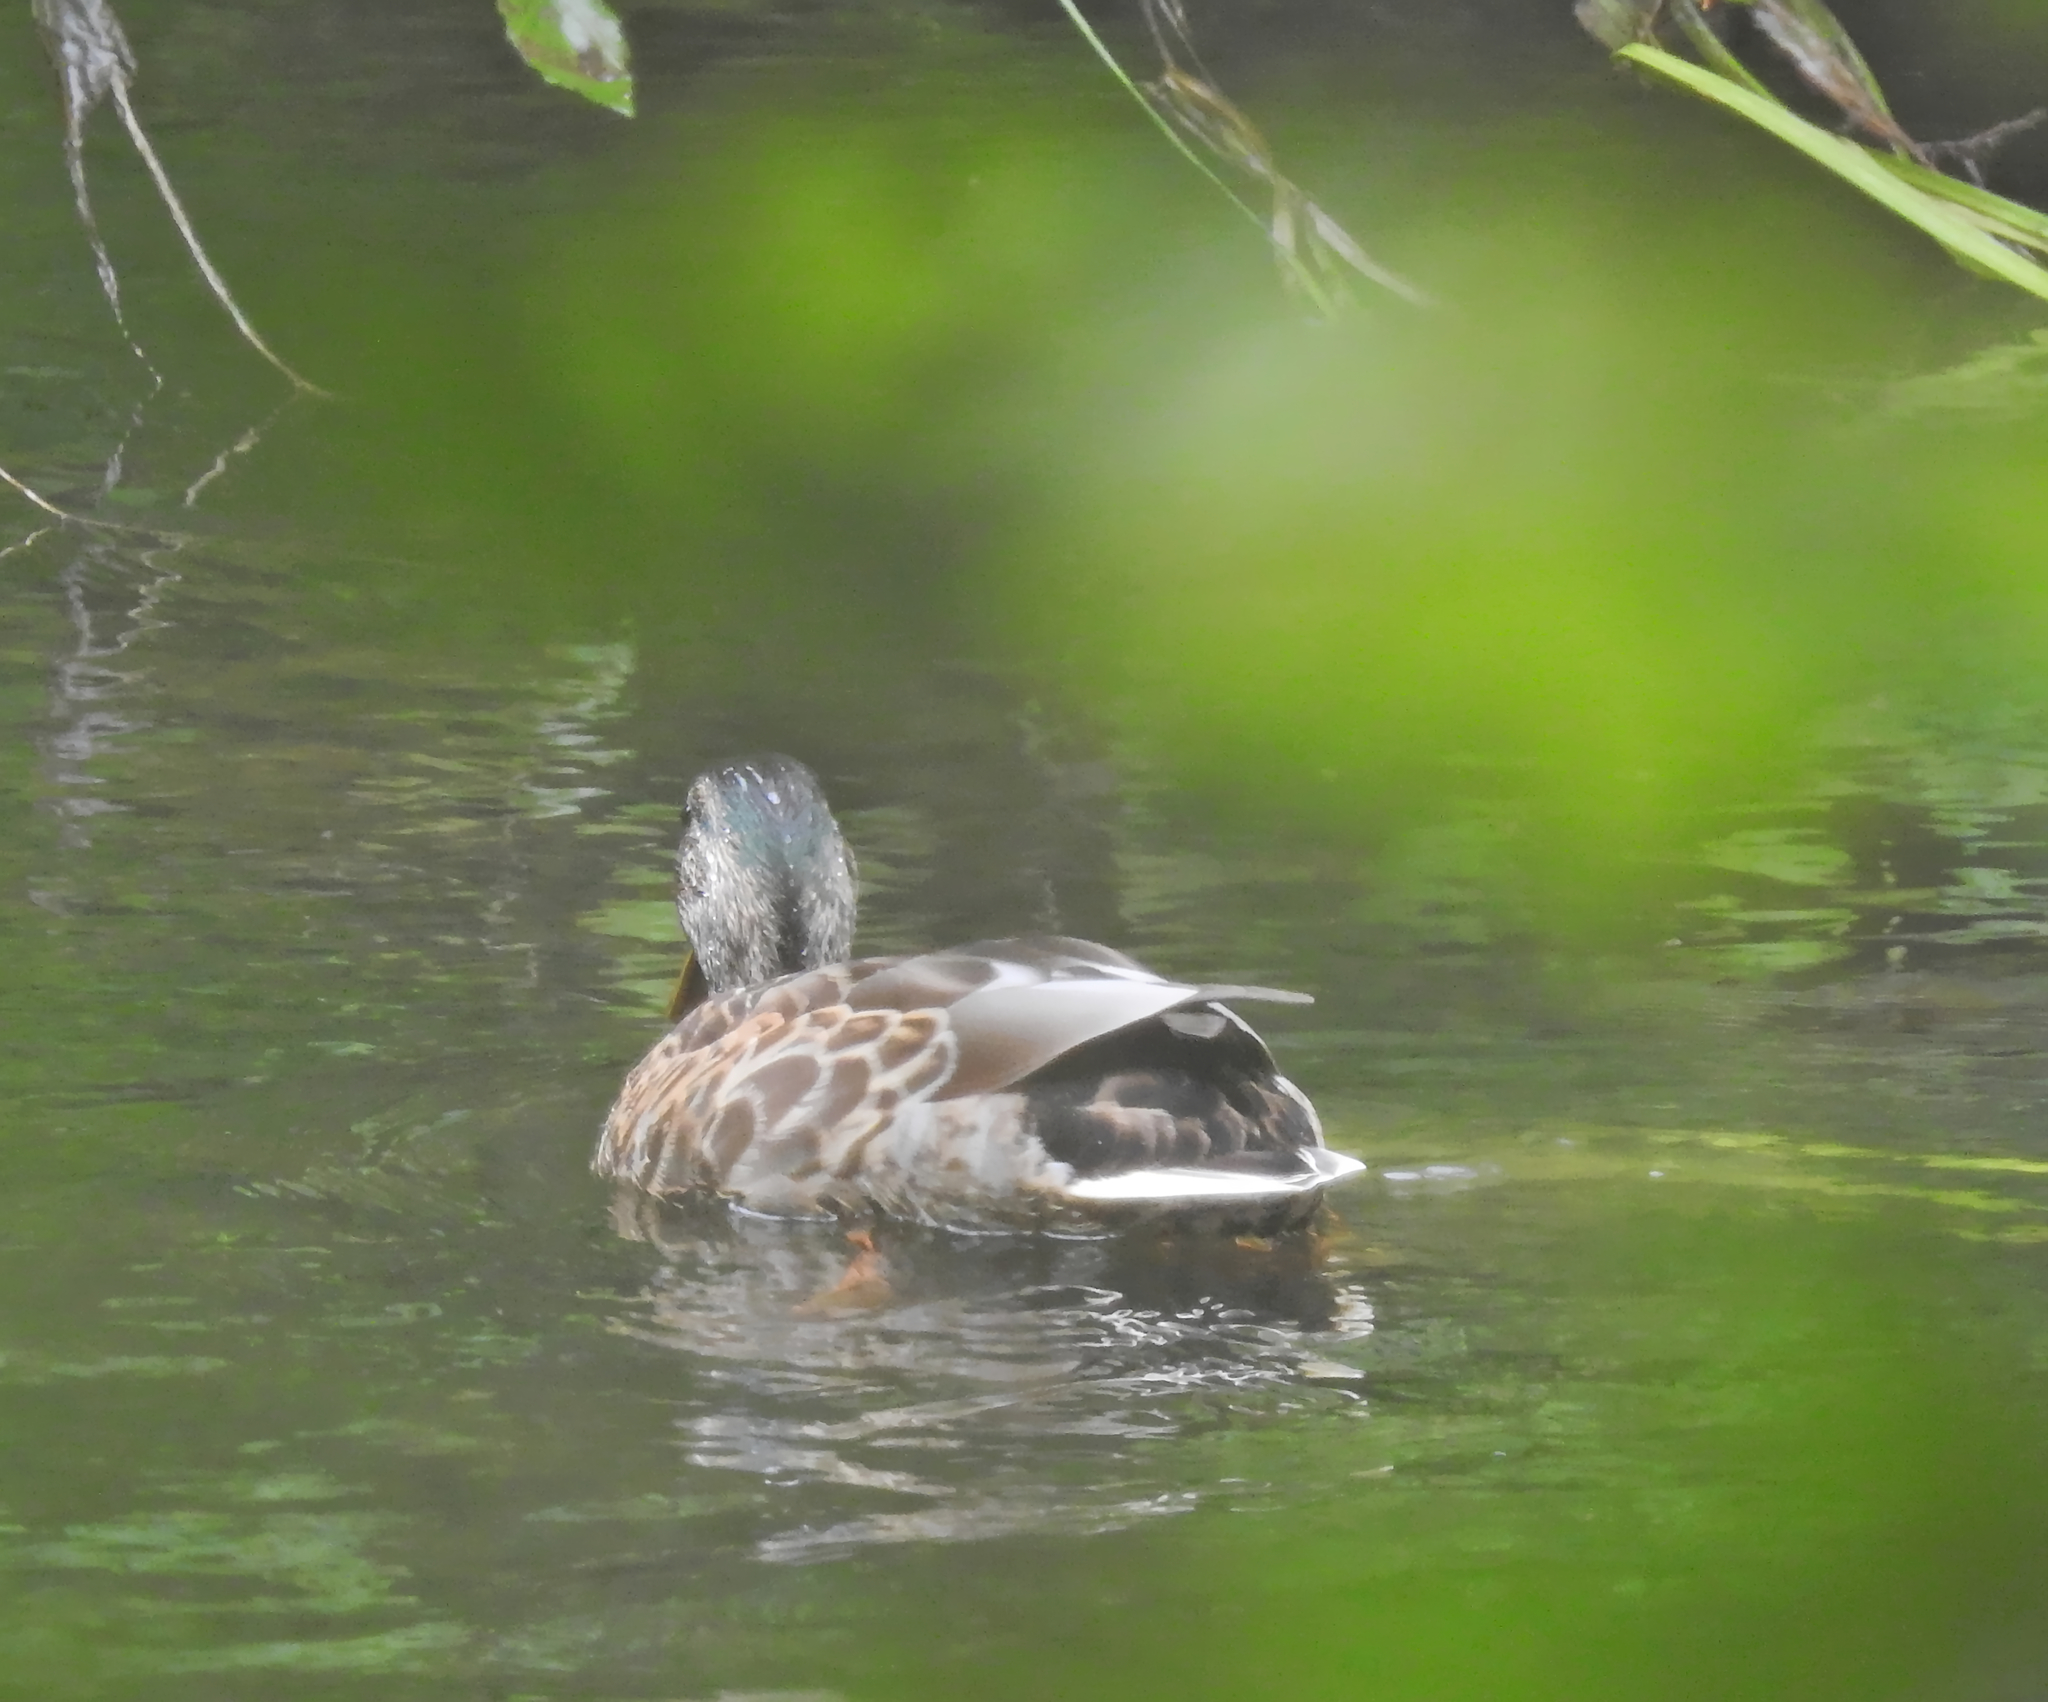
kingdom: Animalia
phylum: Chordata
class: Aves
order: Anseriformes
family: Anatidae
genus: Anas
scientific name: Anas platyrhynchos
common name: Mallard
